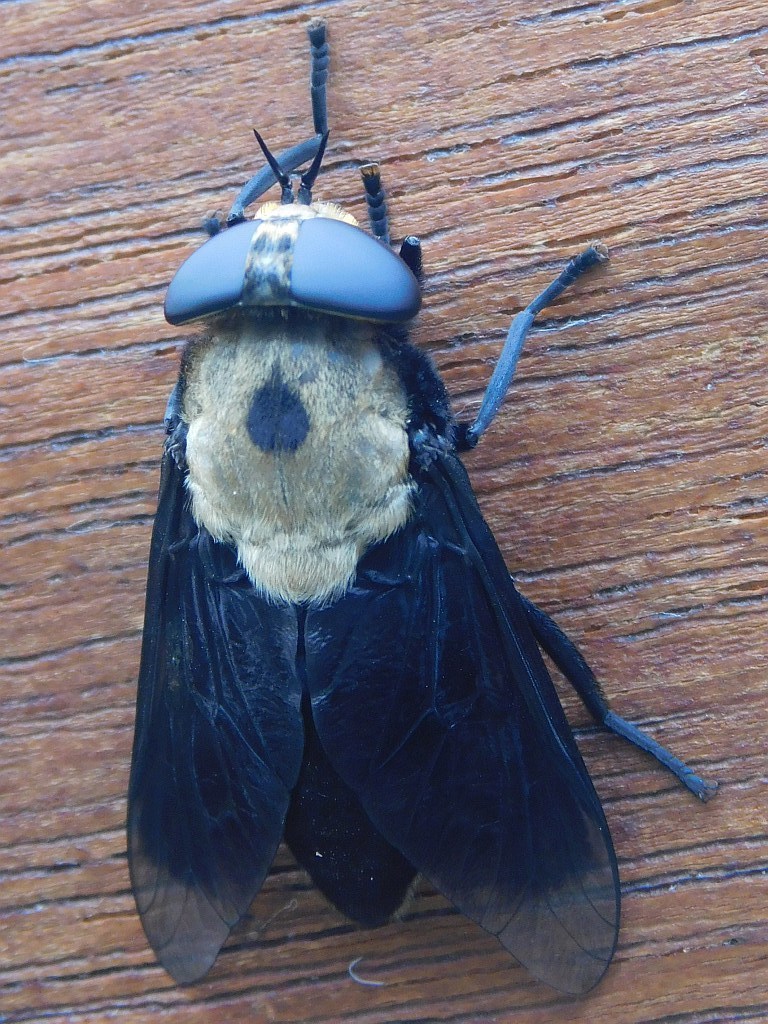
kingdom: Animalia
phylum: Arthropoda
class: Insecta
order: Diptera
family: Tabanidae
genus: Tabanus
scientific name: Tabanus biguttatus
